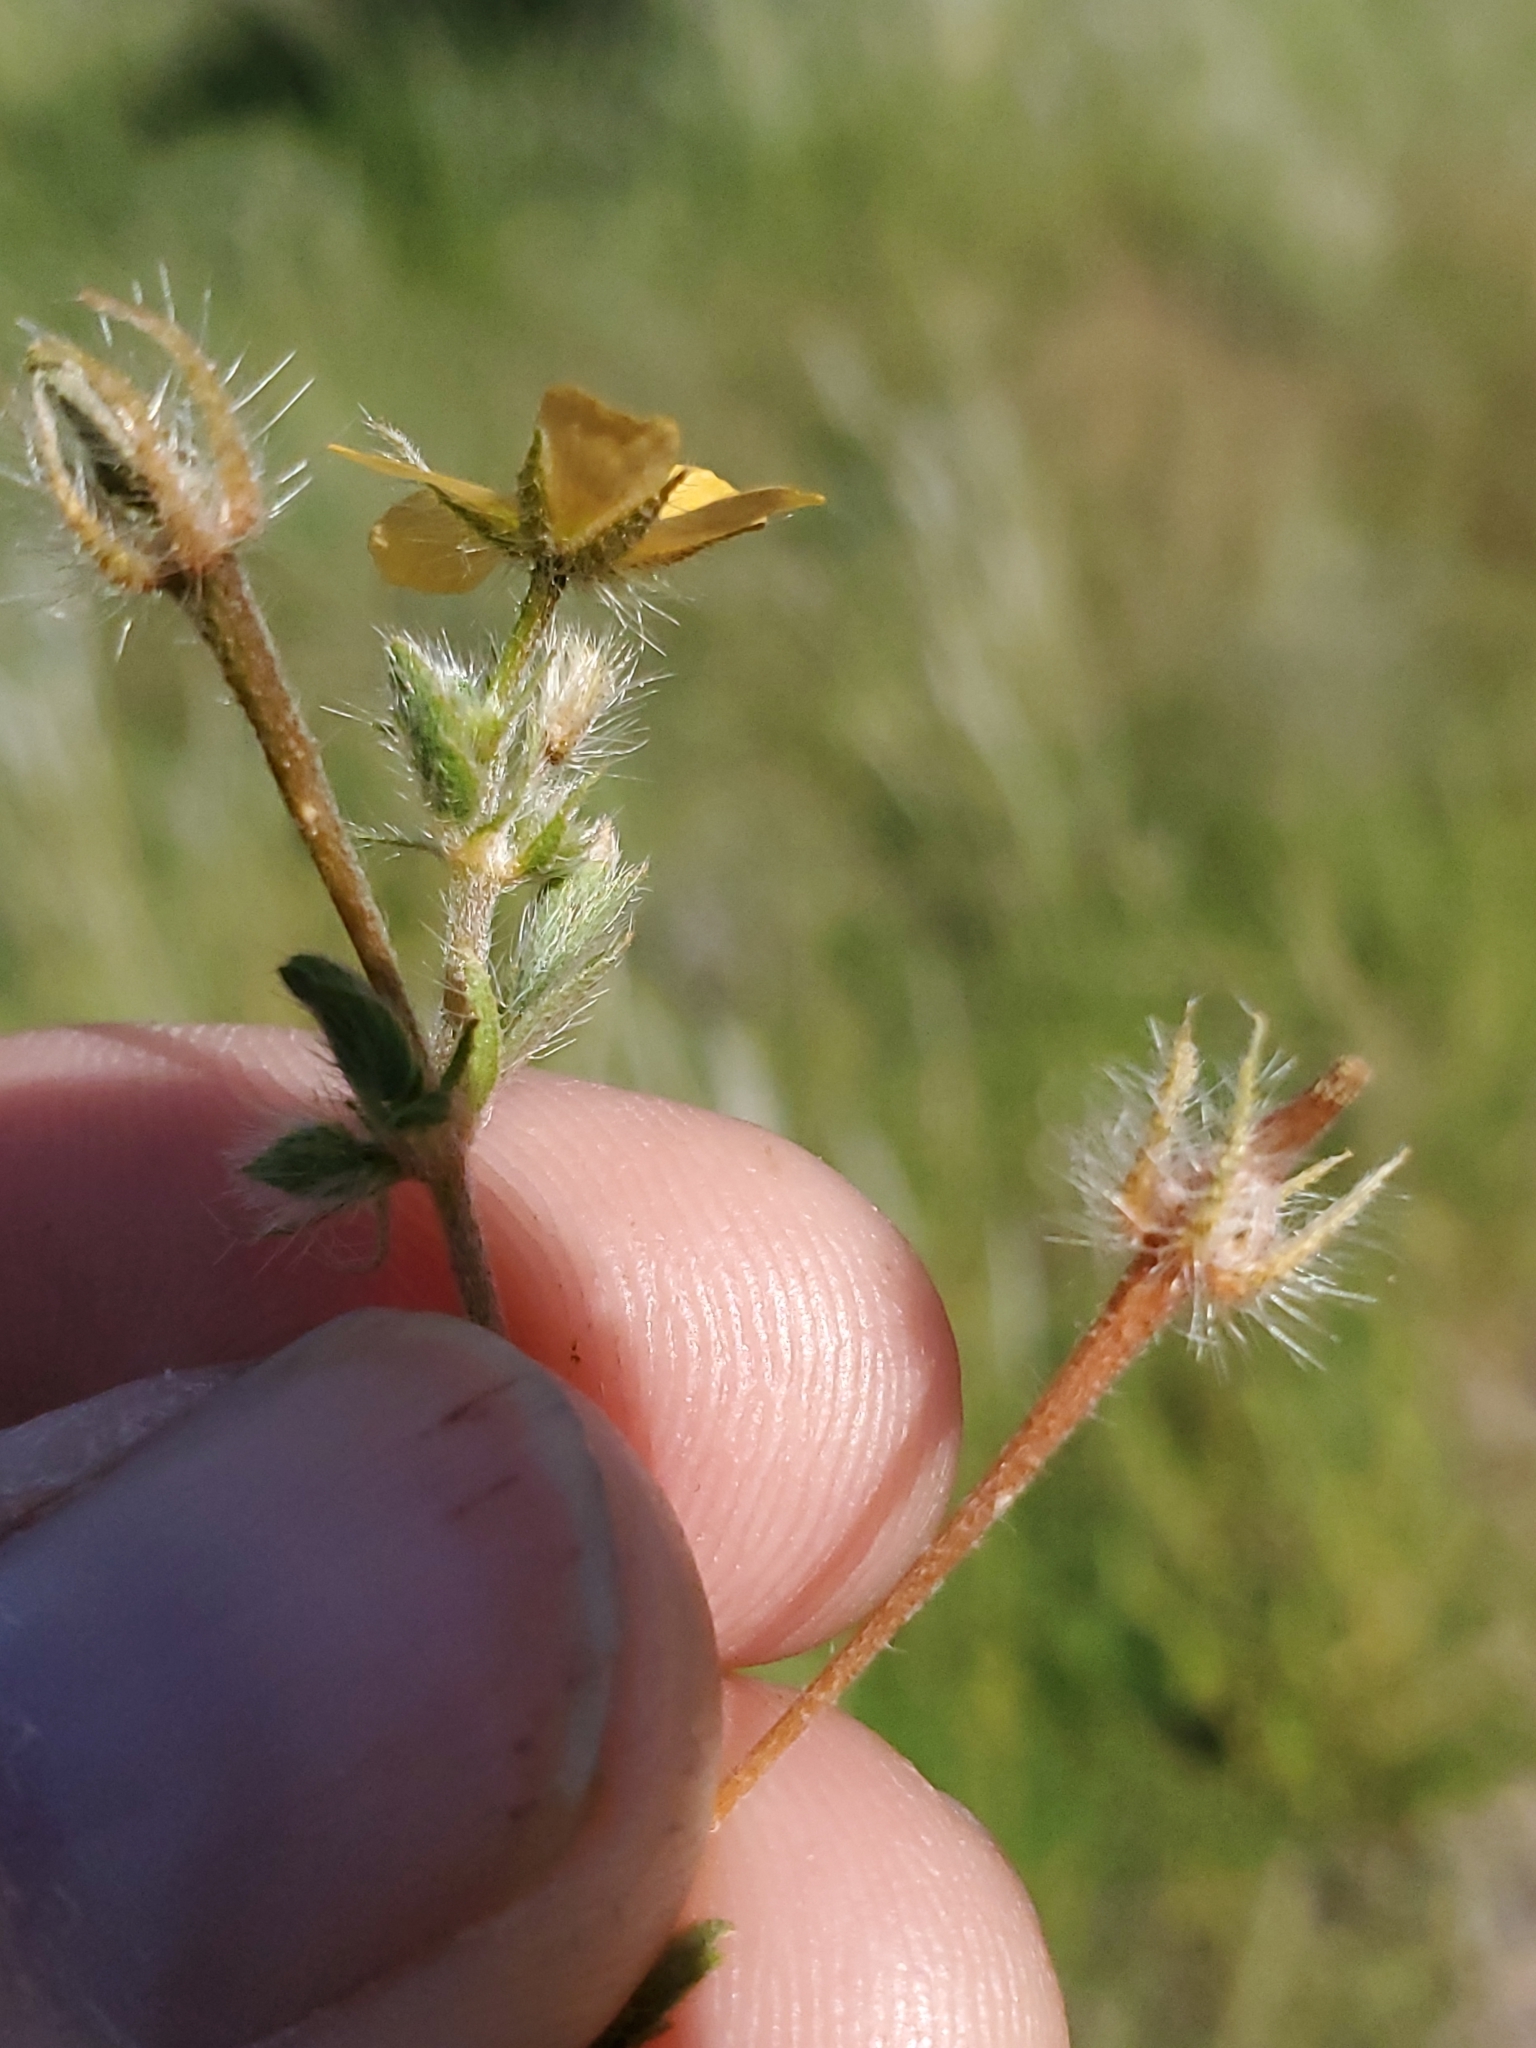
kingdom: Plantae
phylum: Tracheophyta
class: Magnoliopsida
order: Zygophyllales
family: Zygophyllaceae
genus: Kallstroemia
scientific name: Kallstroemia parviflora
